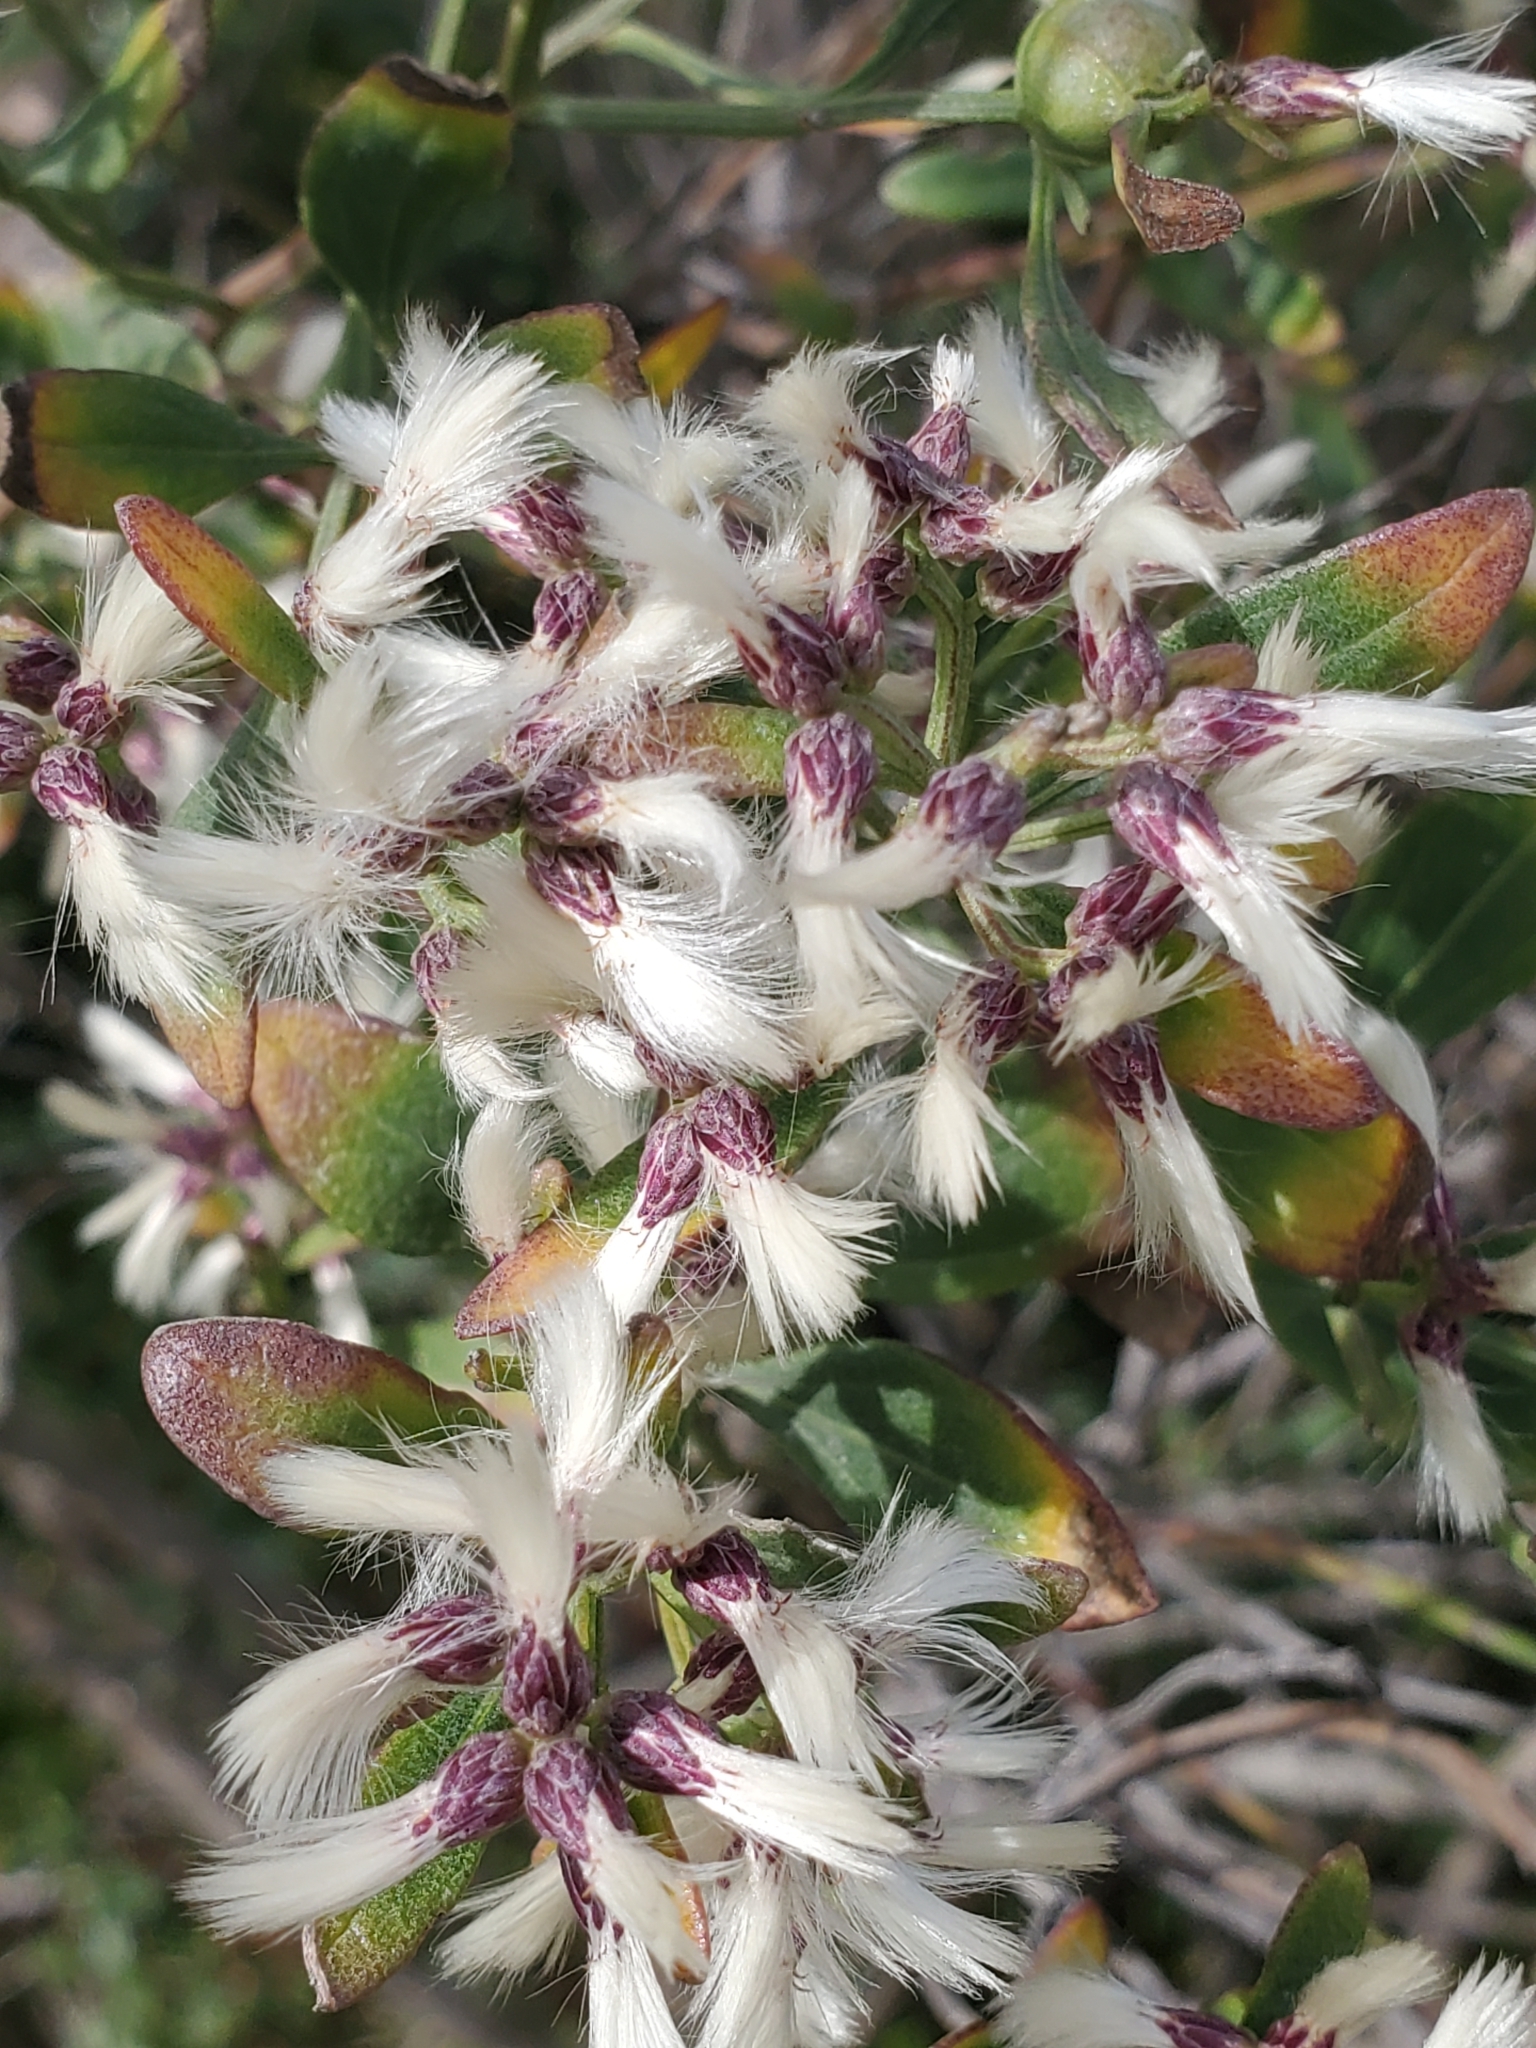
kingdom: Plantae
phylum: Tracheophyta
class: Magnoliopsida
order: Asterales
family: Asteraceae
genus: Baccharis
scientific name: Baccharis halimifolia
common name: Eastern baccharis
